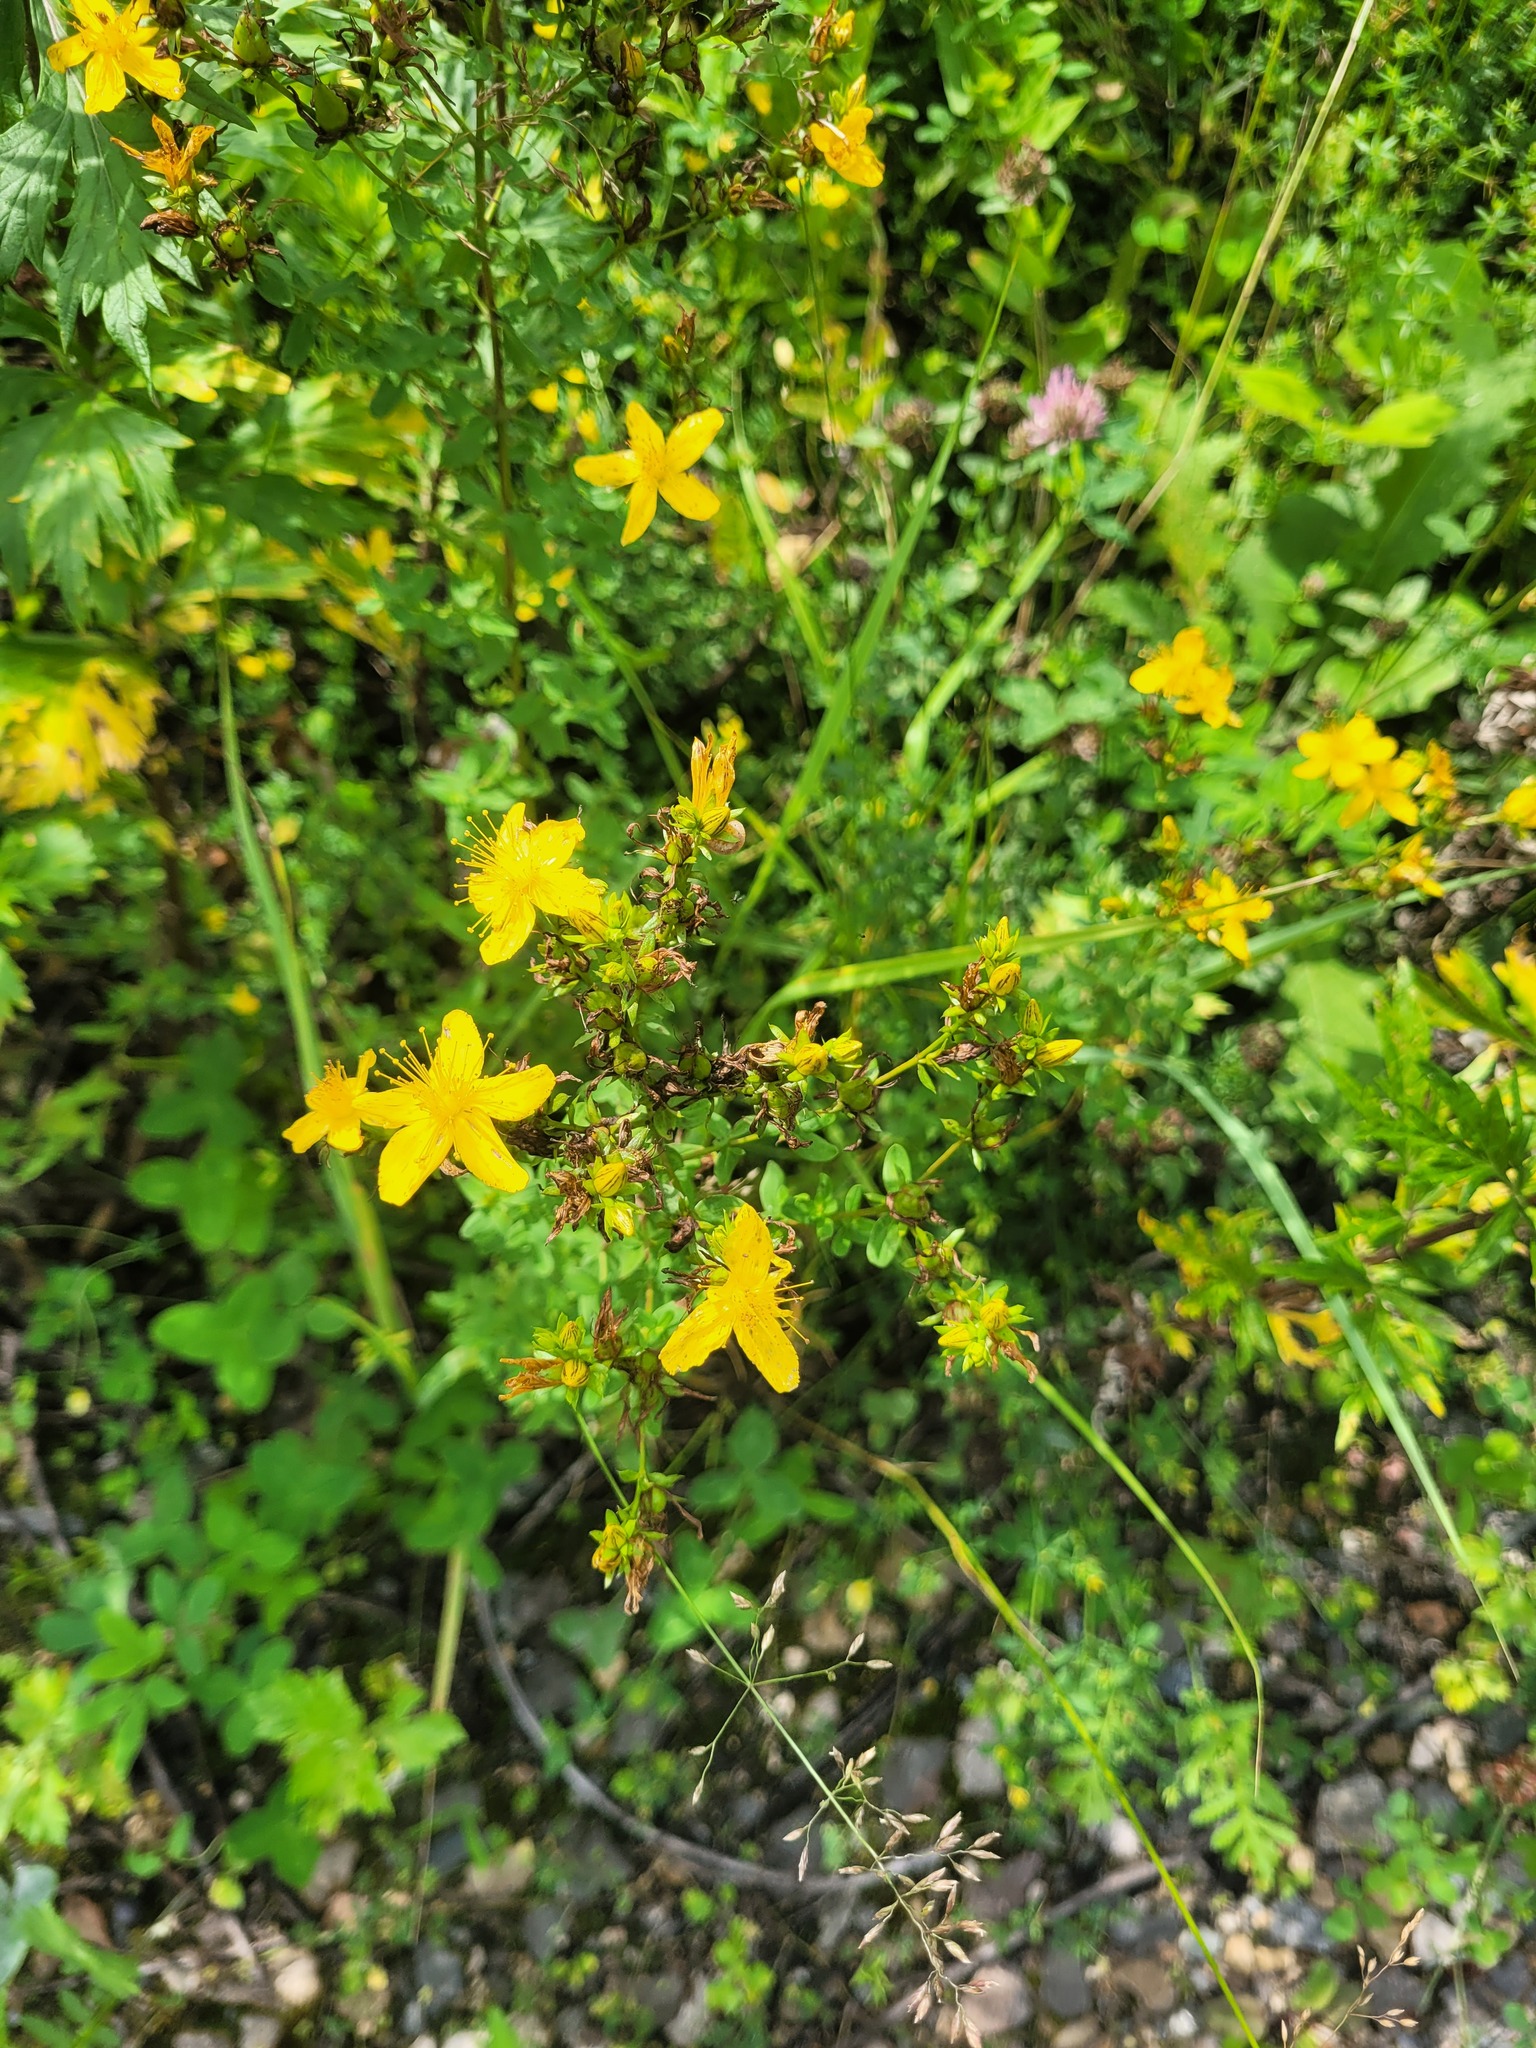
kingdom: Plantae
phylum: Tracheophyta
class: Magnoliopsida
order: Malpighiales
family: Hypericaceae
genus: Hypericum
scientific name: Hypericum perforatum
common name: Common st. johnswort
